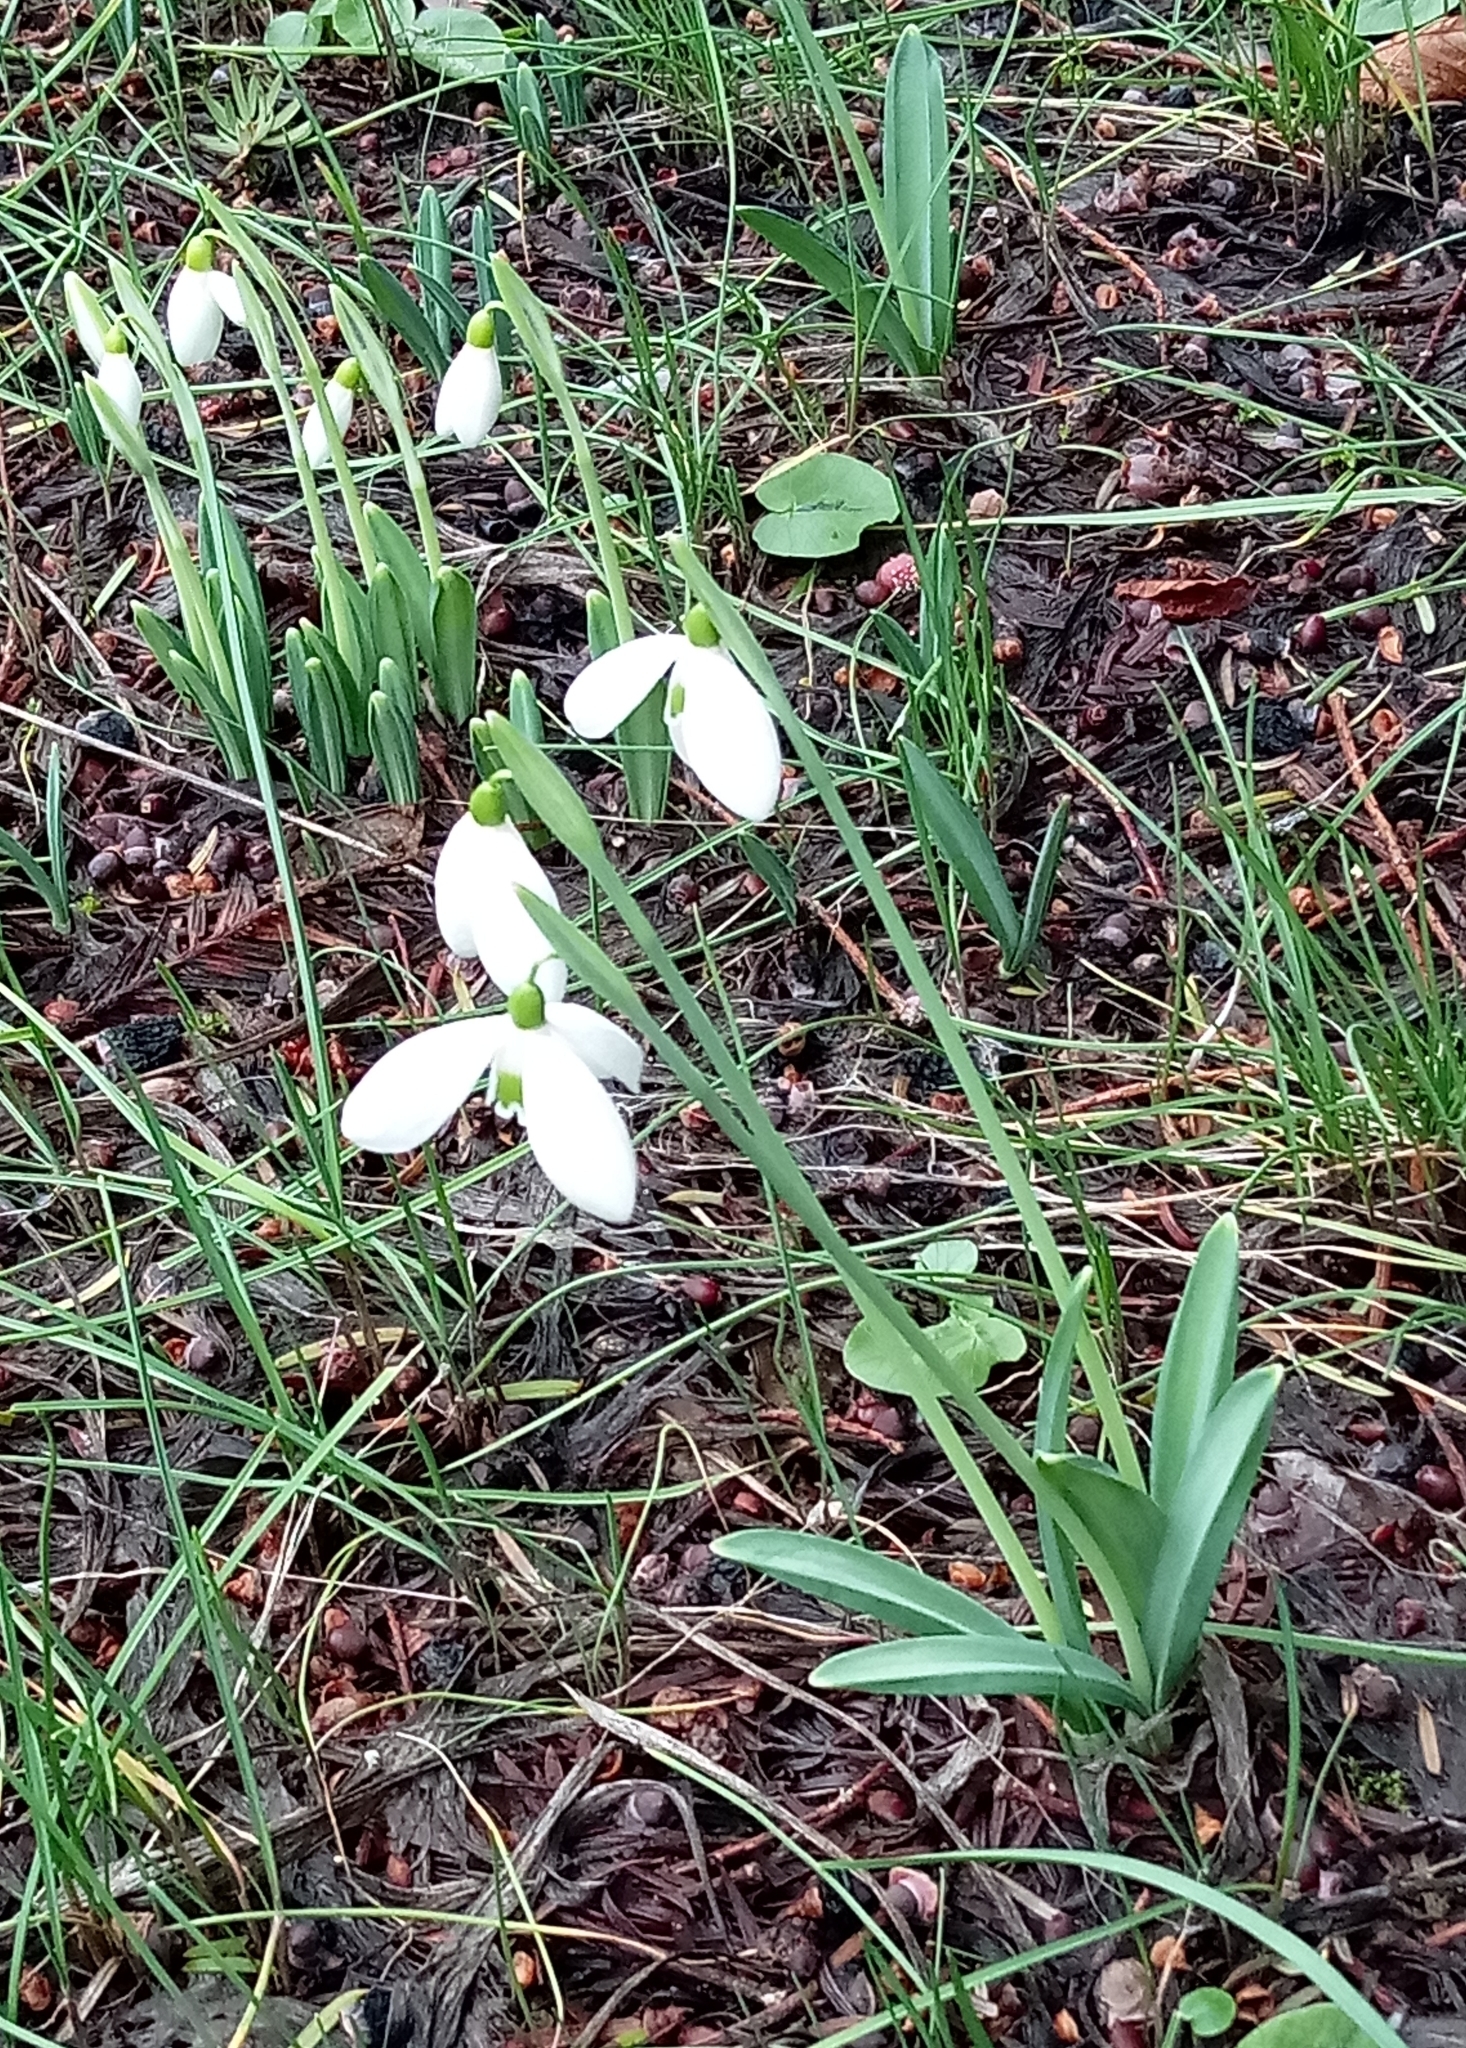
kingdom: Plantae
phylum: Tracheophyta
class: Liliopsida
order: Asparagales
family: Amaryllidaceae
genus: Galanthus
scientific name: Galanthus plicatus
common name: Pleated snowdrop
